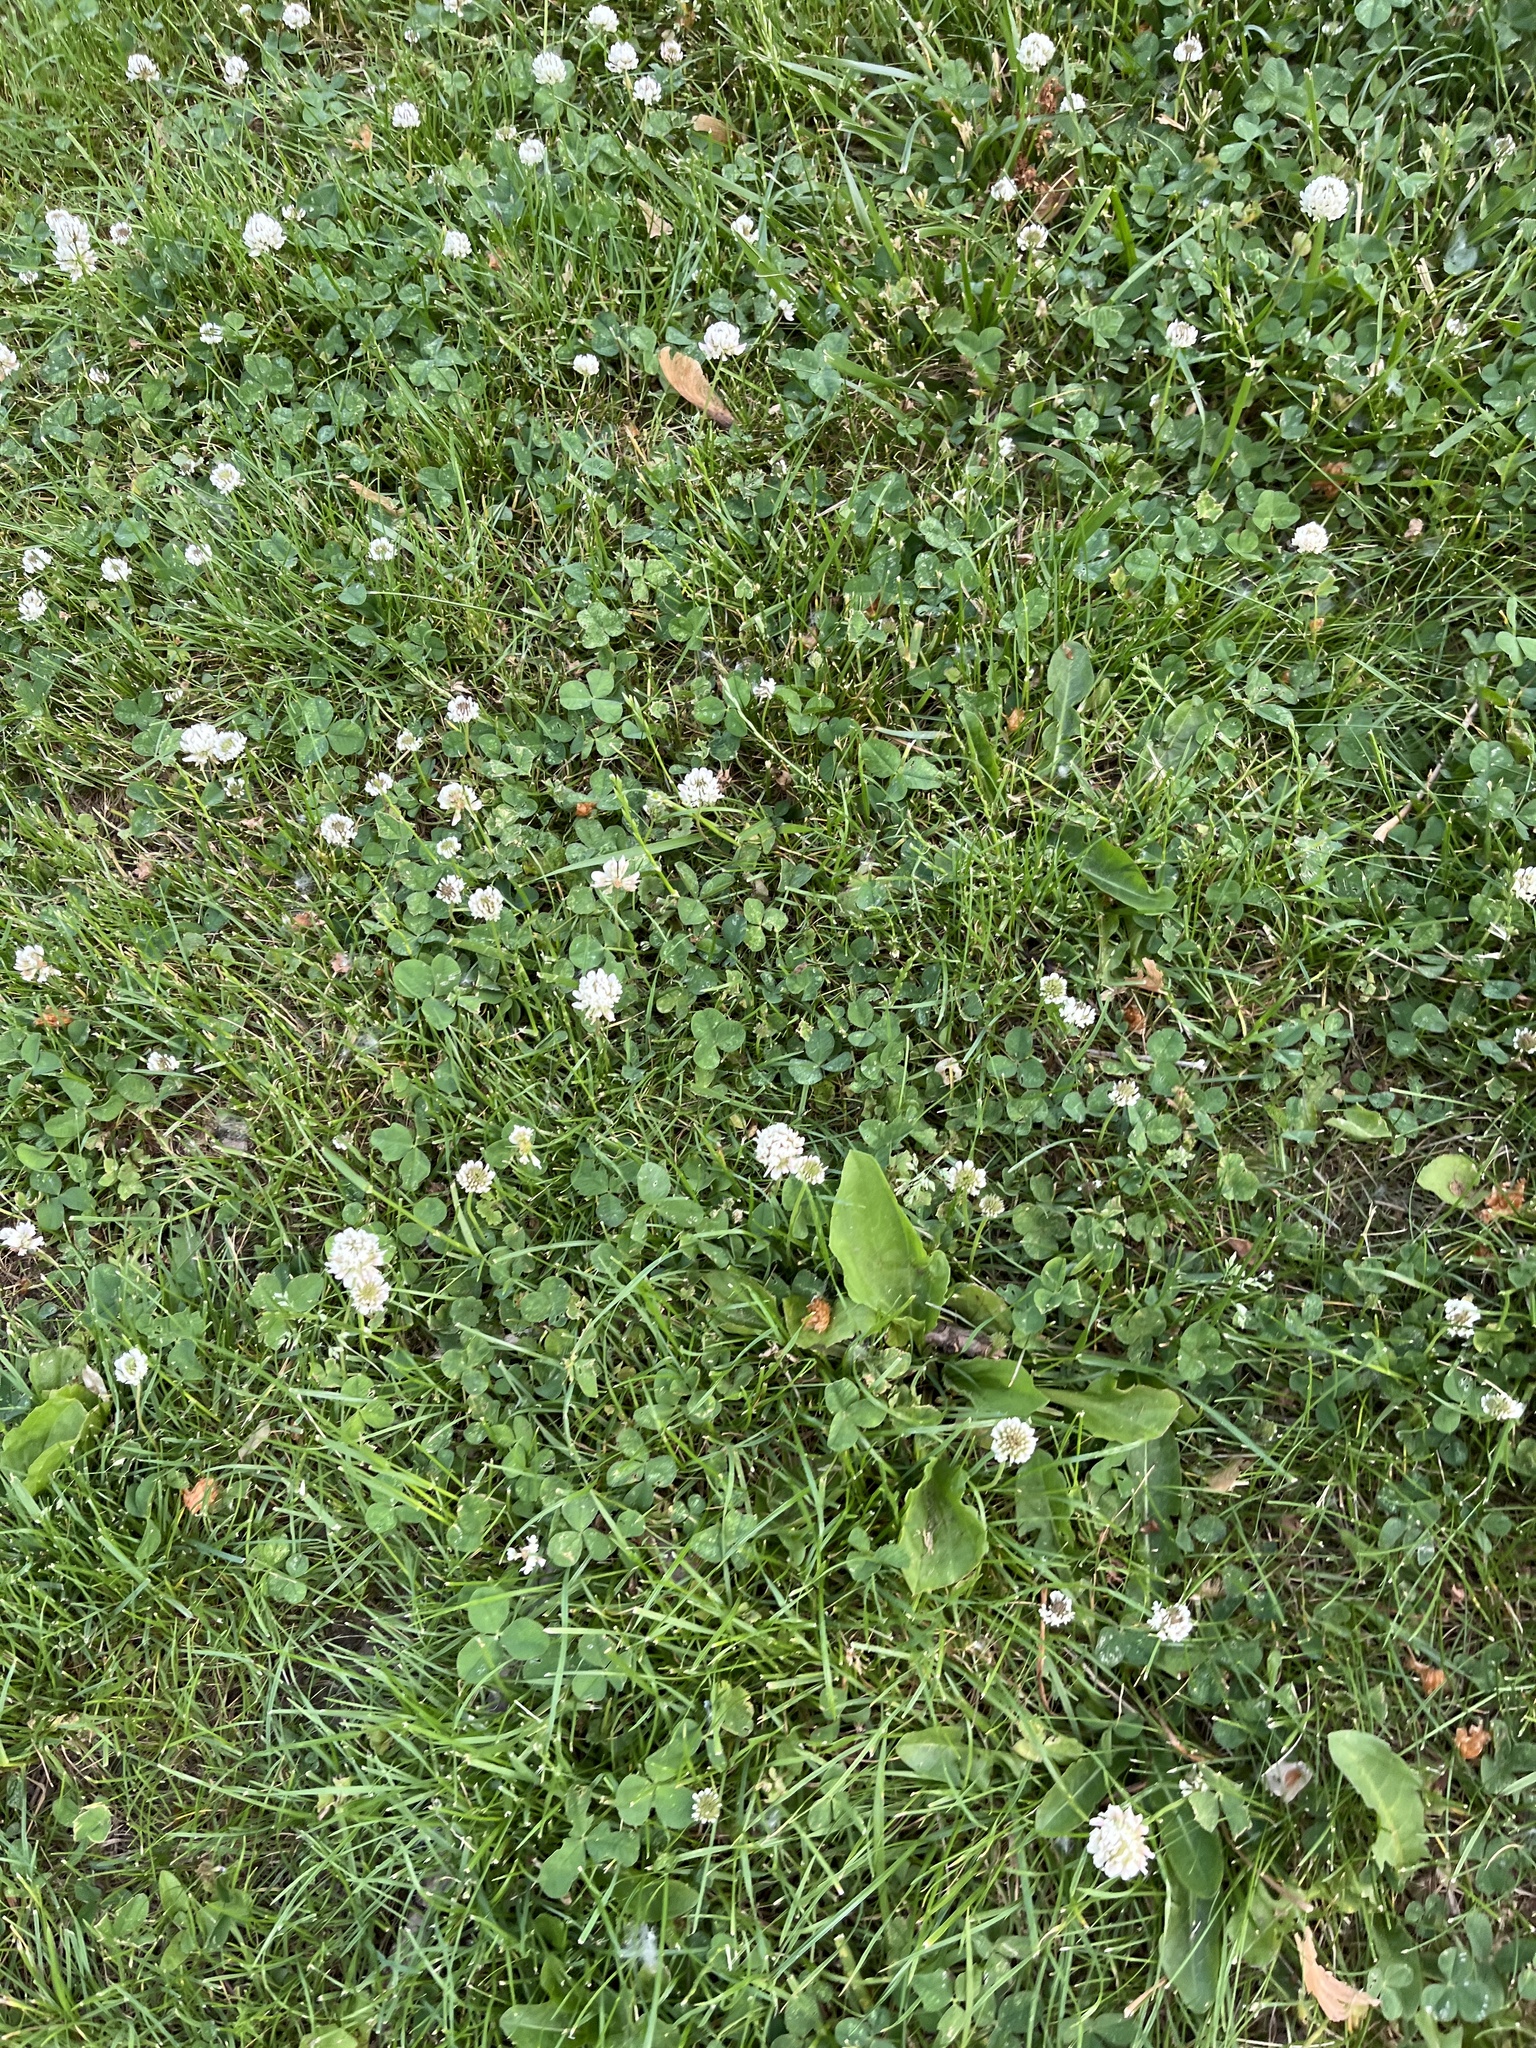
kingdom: Plantae
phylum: Tracheophyta
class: Magnoliopsida
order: Fabales
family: Fabaceae
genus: Trifolium
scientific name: Trifolium repens
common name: White clover
